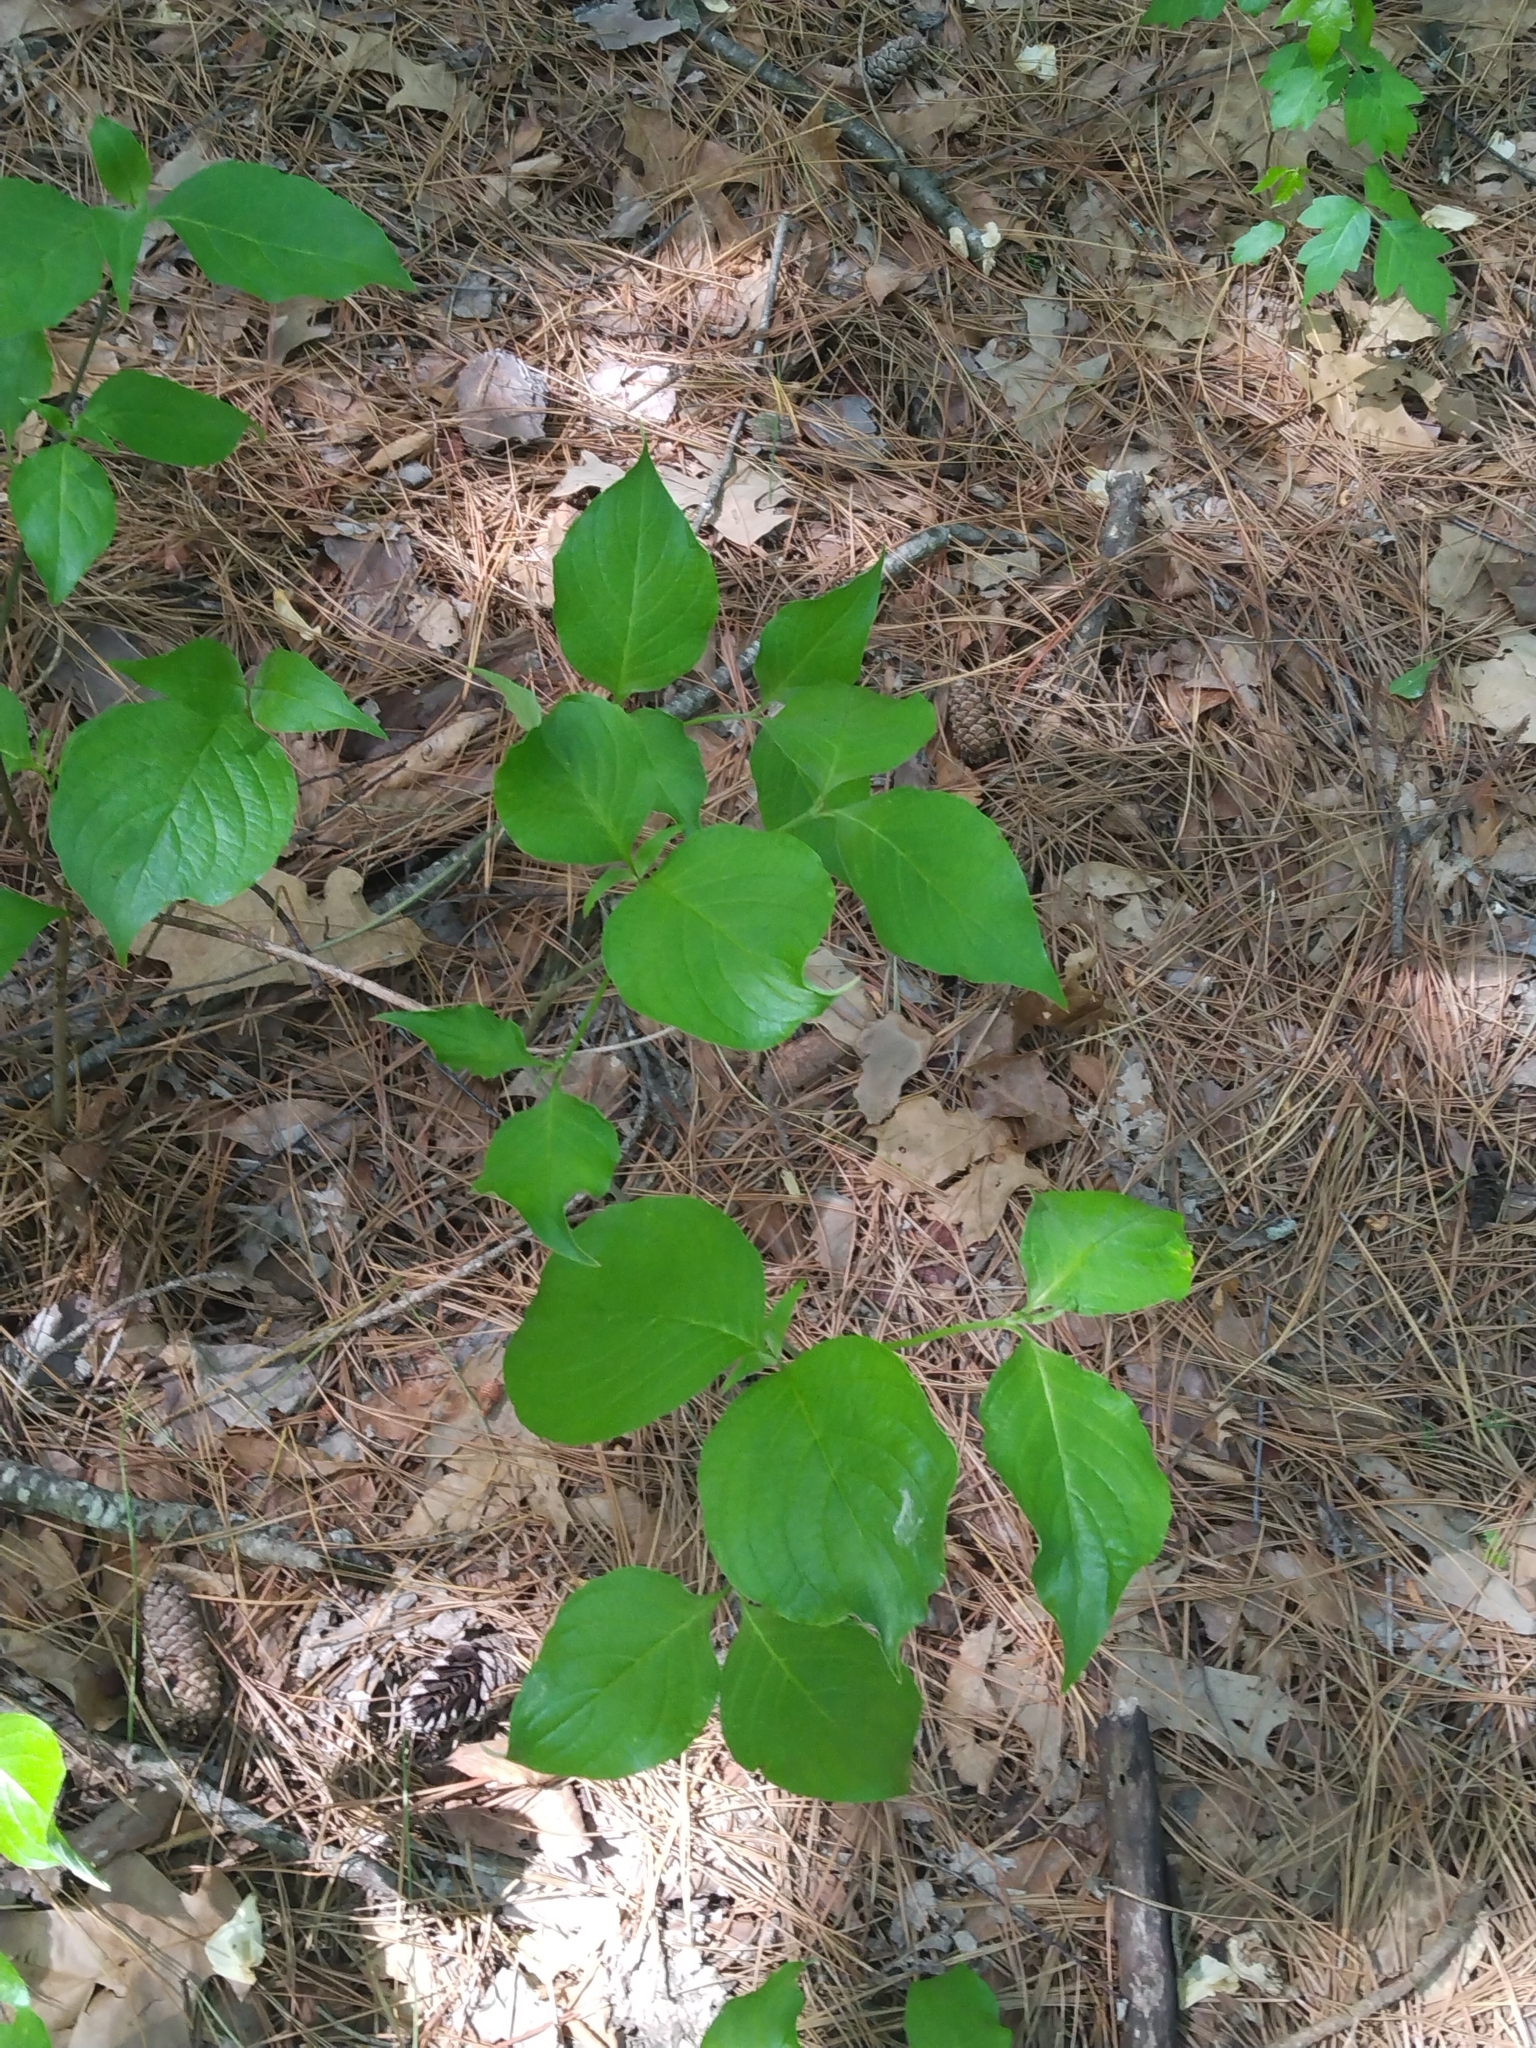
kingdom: Plantae
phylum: Tracheophyta
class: Magnoliopsida
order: Cornales
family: Cornaceae
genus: Cornus
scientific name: Cornus florida
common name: Flowering dogwood
